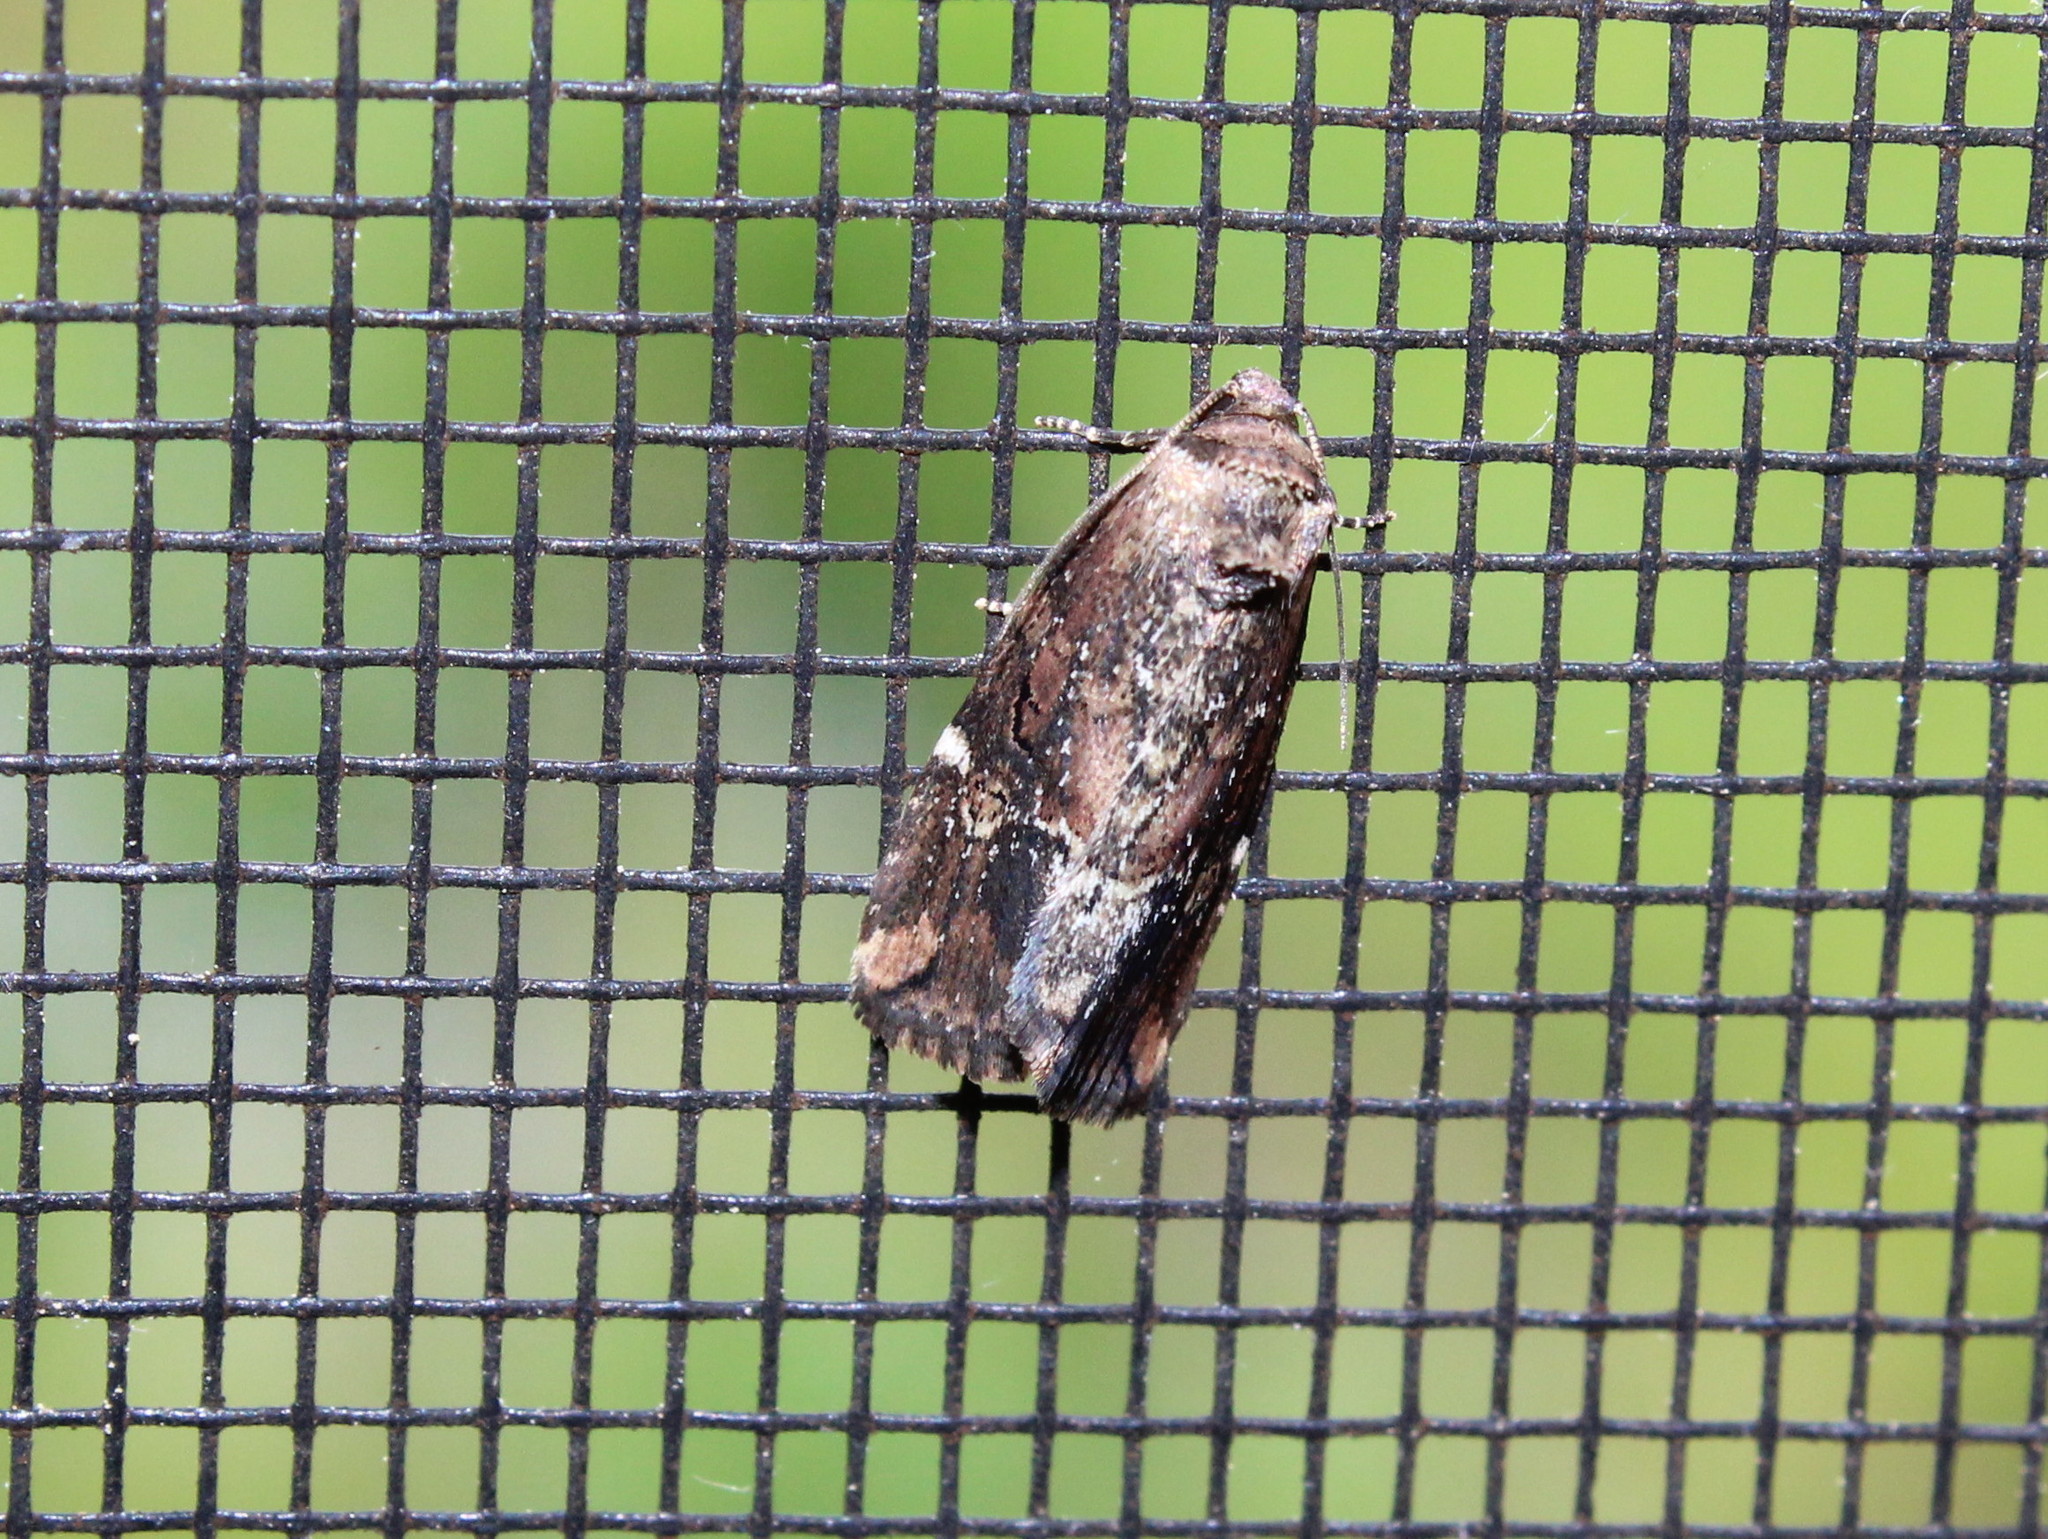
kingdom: Animalia
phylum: Arthropoda
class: Insecta
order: Lepidoptera
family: Noctuidae
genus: Elaphria
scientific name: Elaphria versicolor
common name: Fir harlequin
